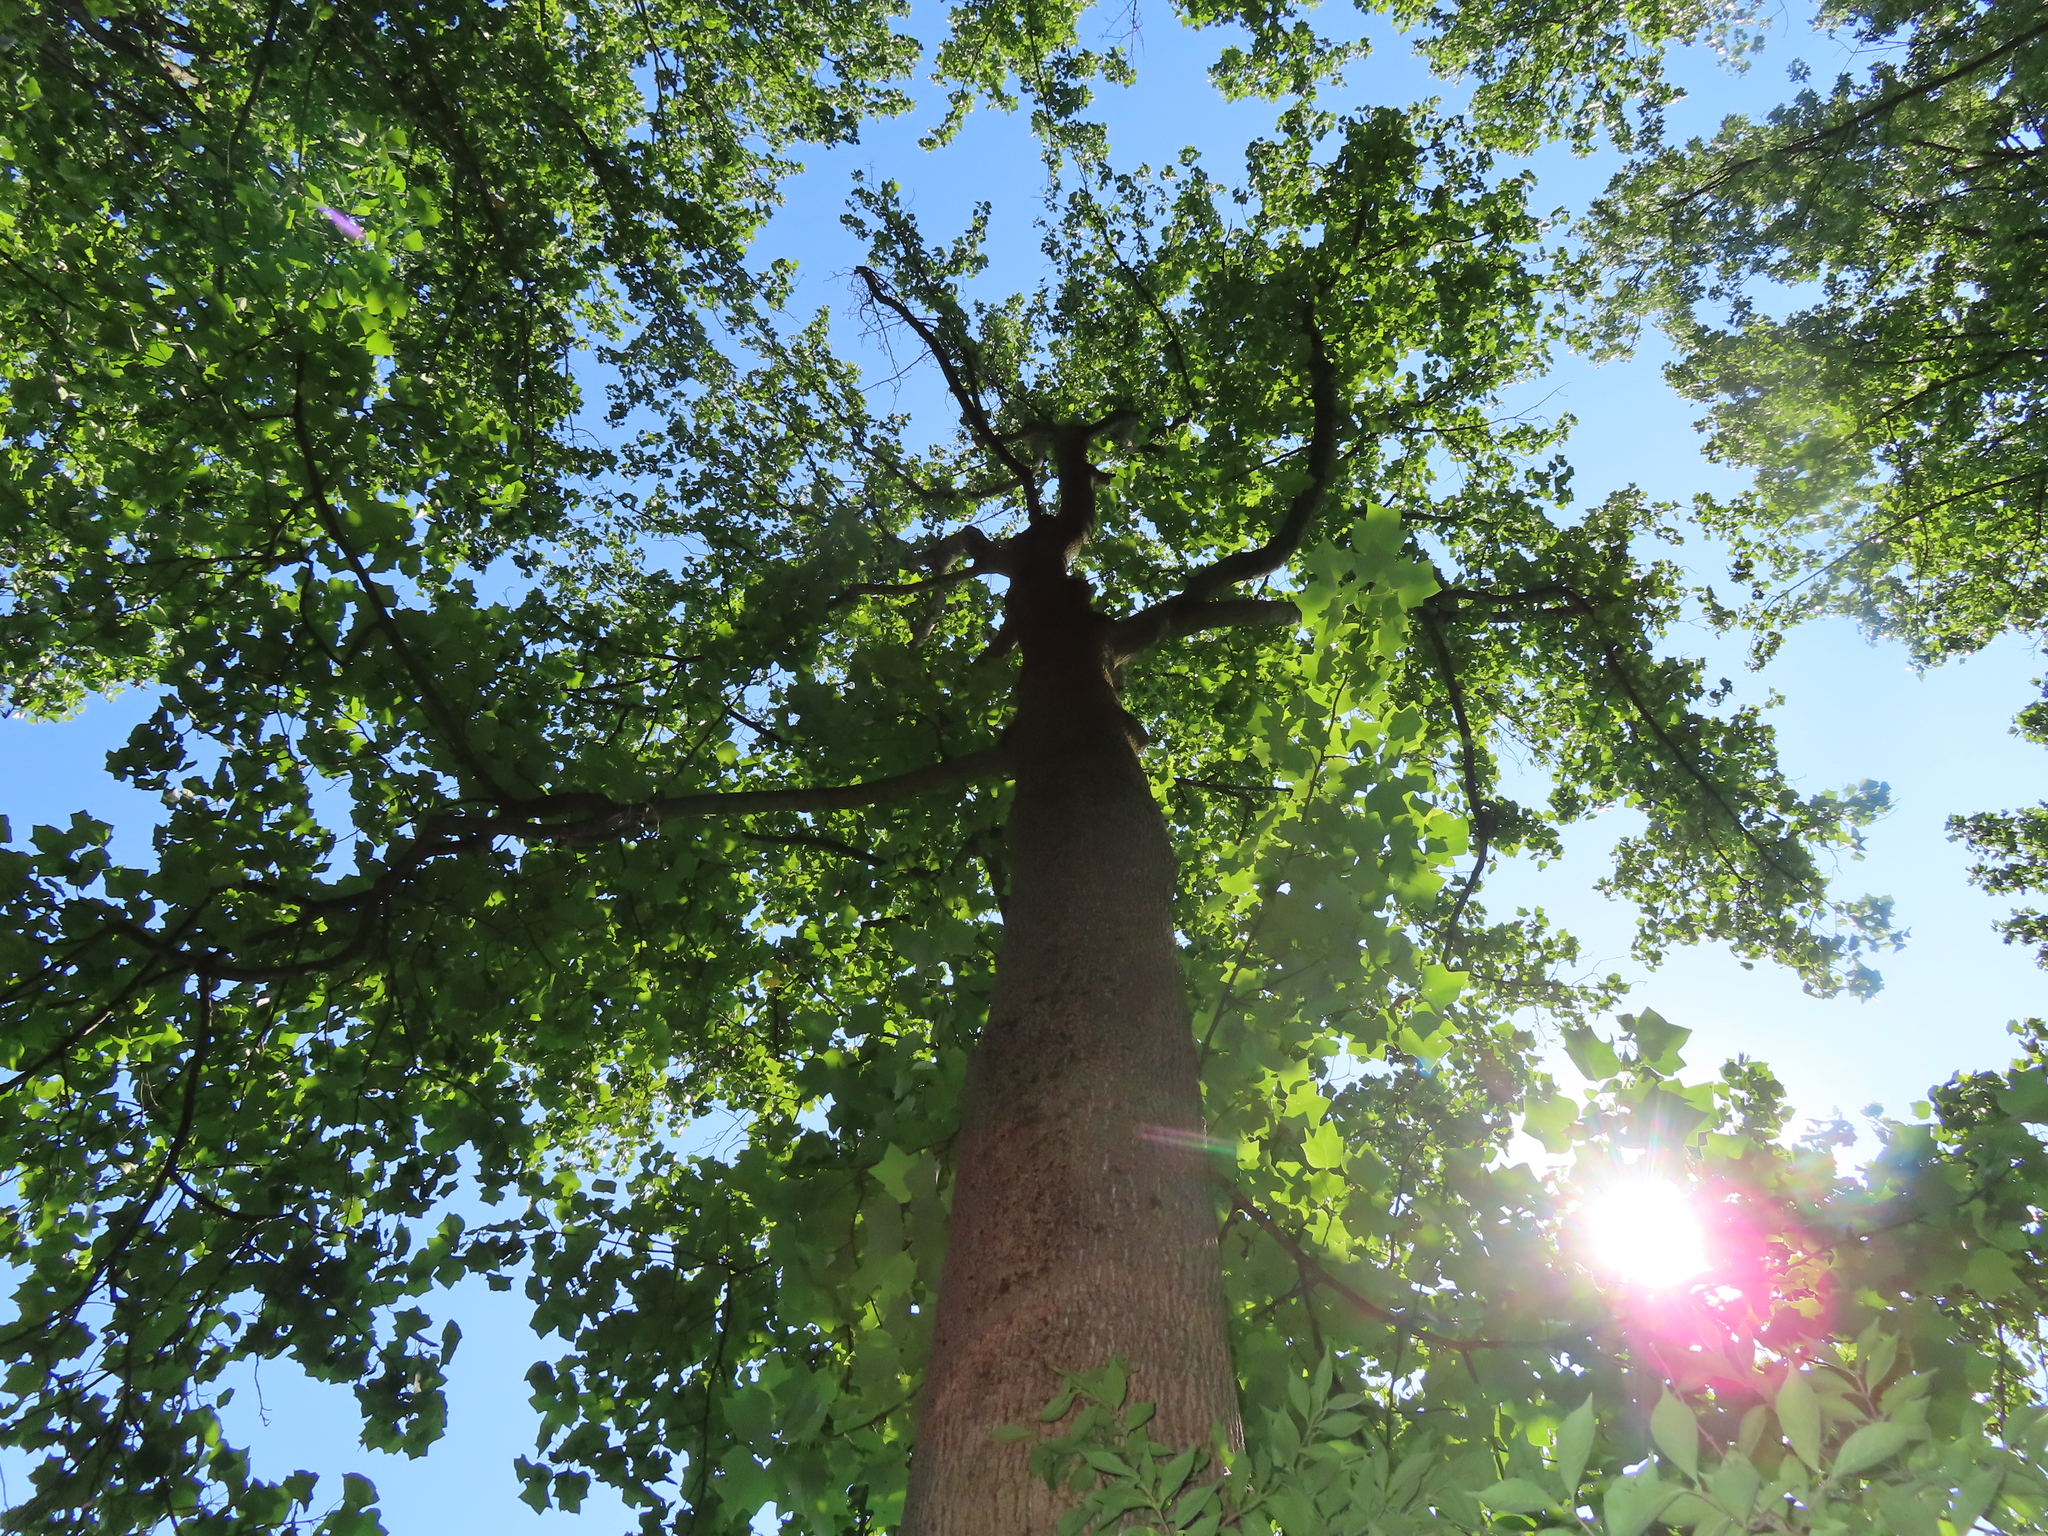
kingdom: Plantae
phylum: Tracheophyta
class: Magnoliopsida
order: Magnoliales
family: Magnoliaceae
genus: Liriodendron
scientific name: Liriodendron tulipifera
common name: Tulip tree
